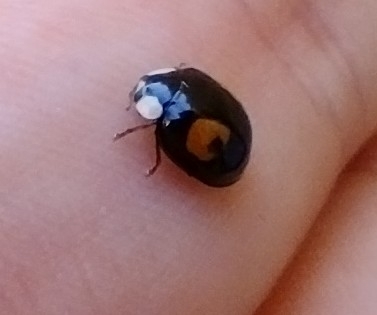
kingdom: Animalia
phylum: Arthropoda
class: Insecta
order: Coleoptera
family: Coccinellidae
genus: Harmonia
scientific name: Harmonia axyridis
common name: Harlequin ladybird
